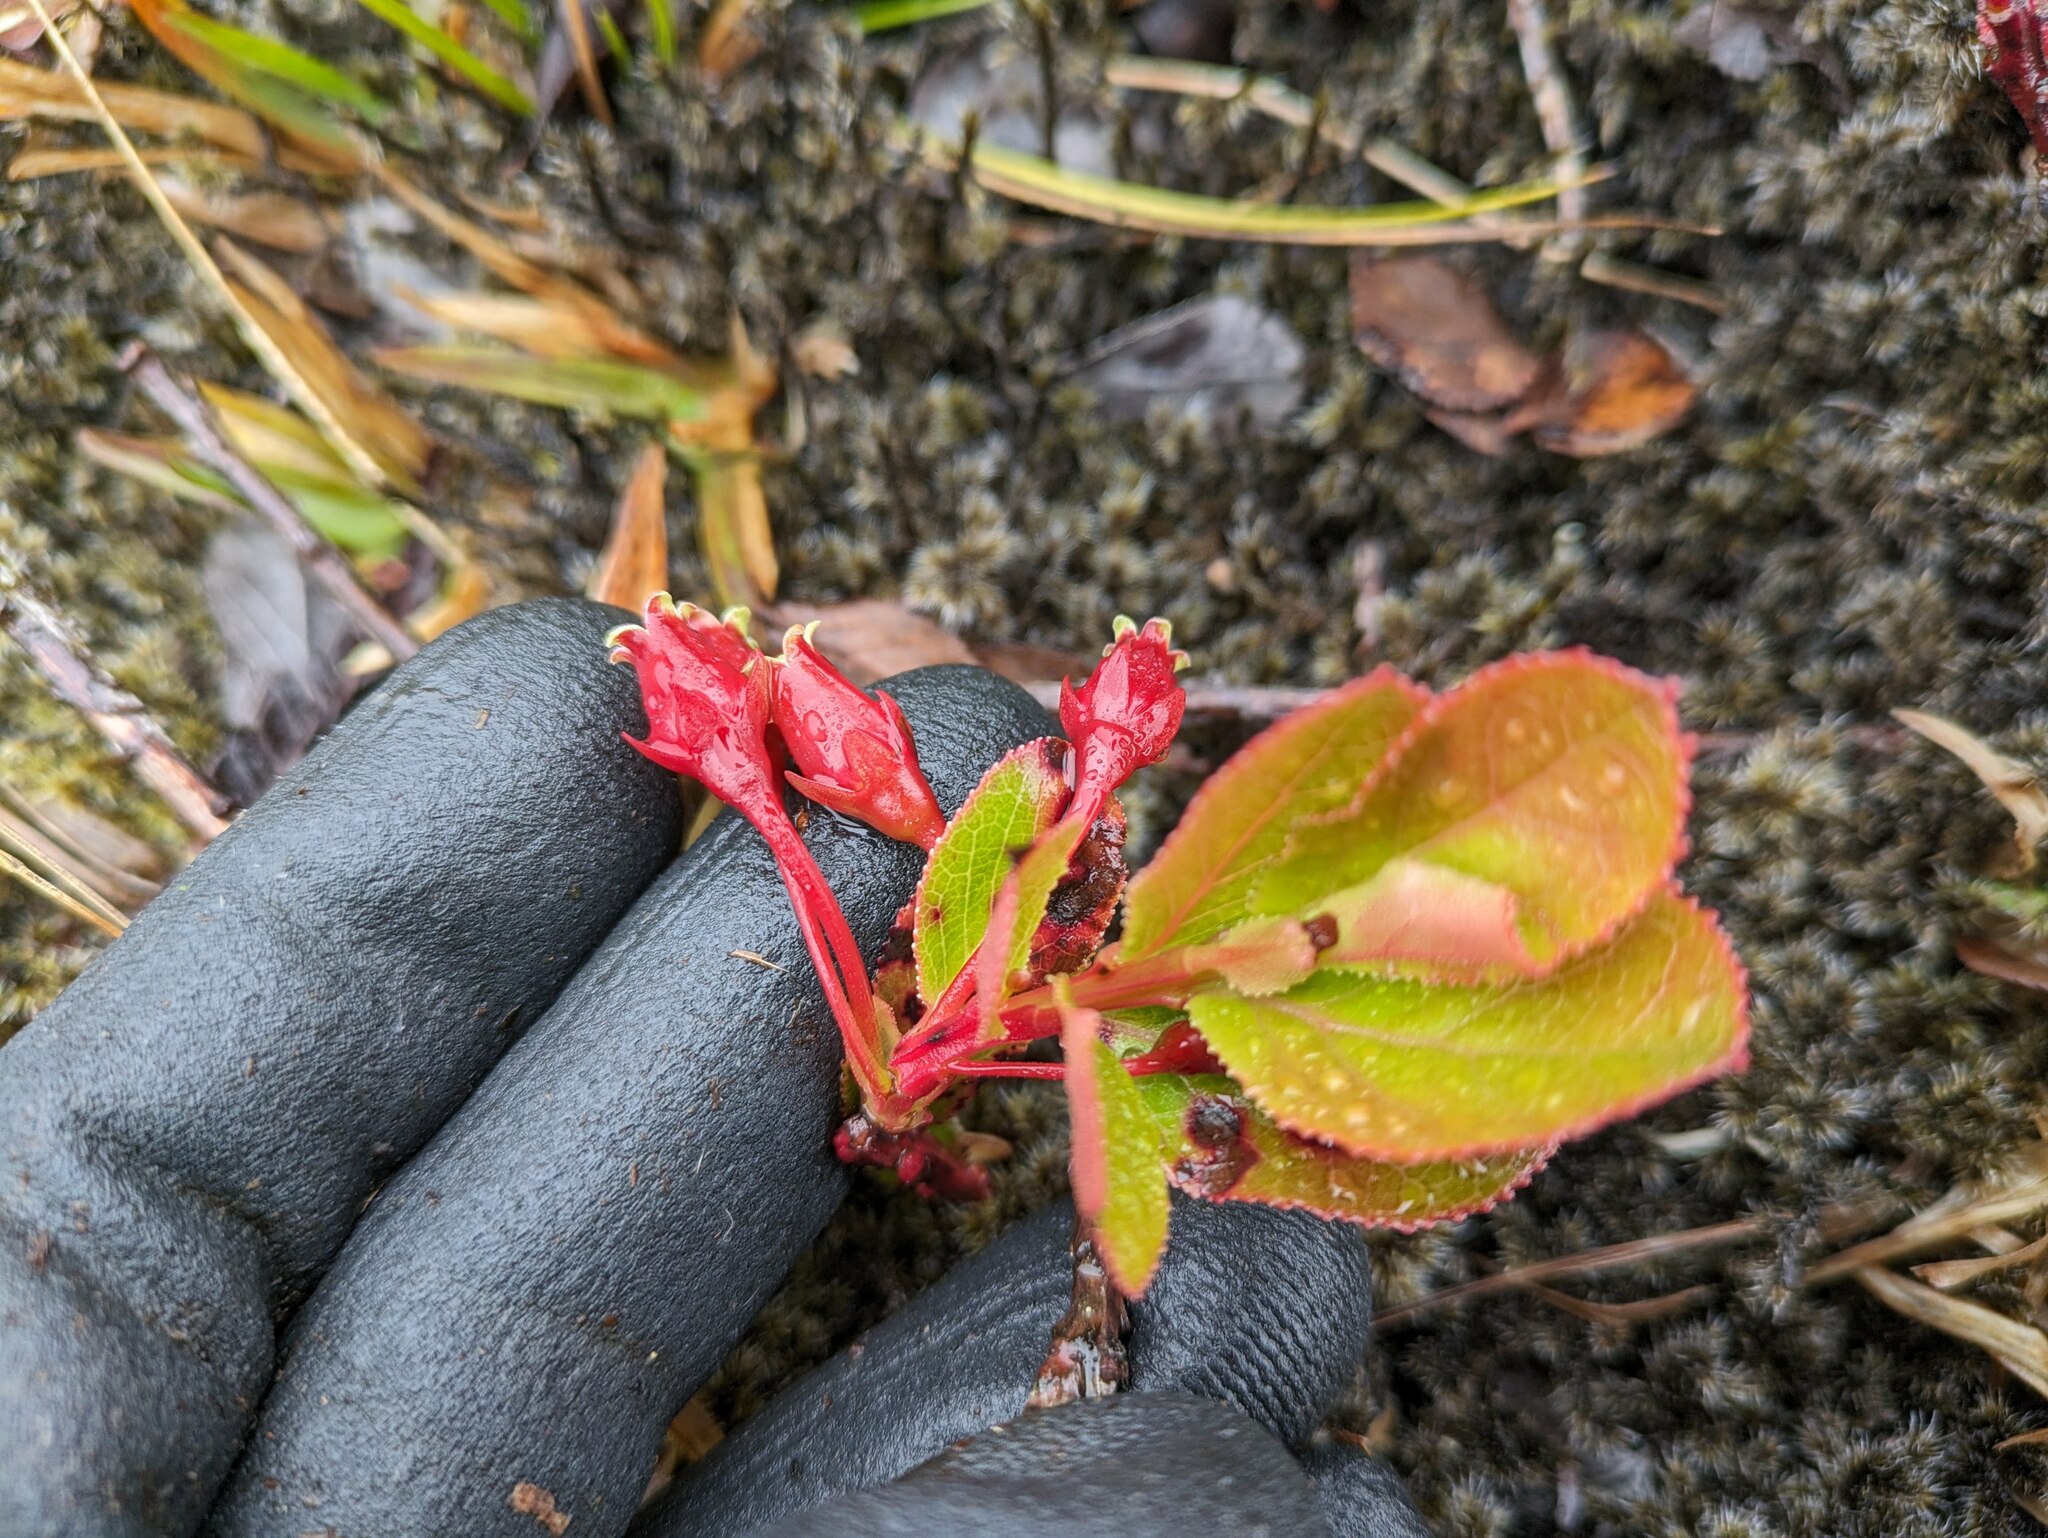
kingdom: Plantae
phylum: Tracheophyta
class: Magnoliopsida
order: Ericales
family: Ericaceae
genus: Vaccinium
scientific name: Vaccinium dentatum
